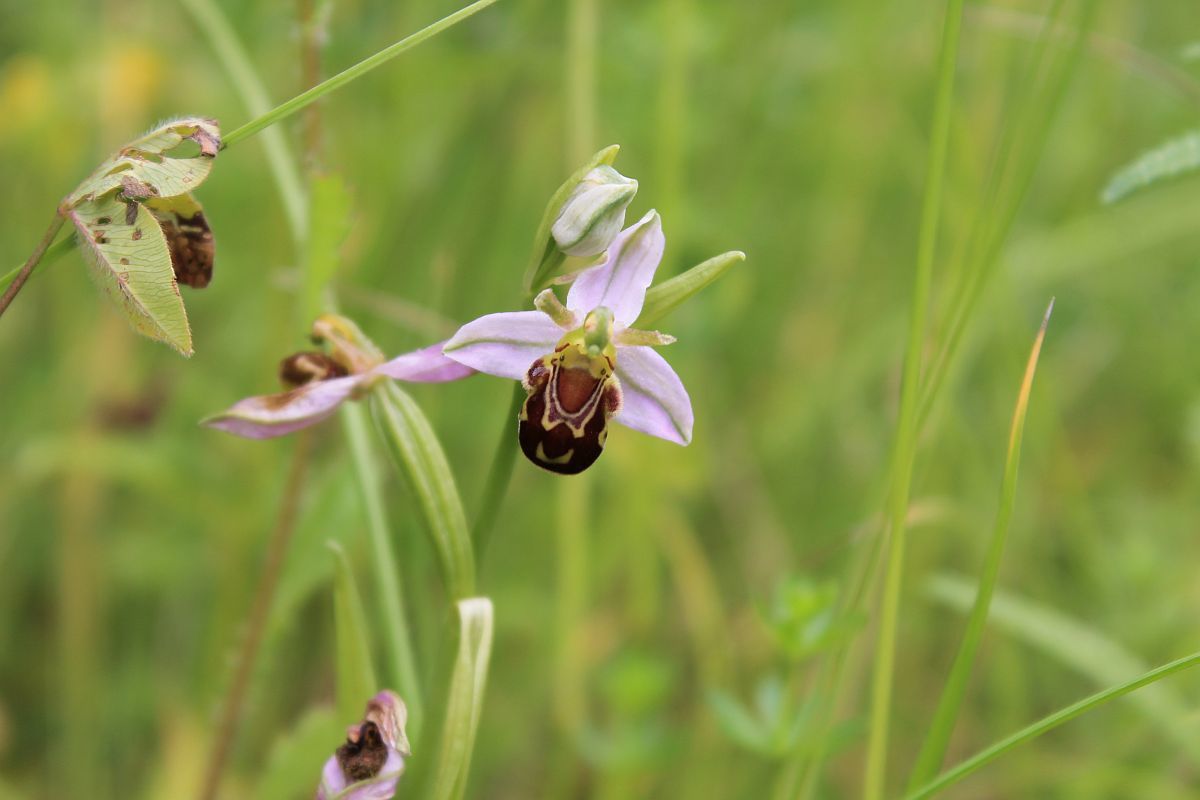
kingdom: Plantae
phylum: Tracheophyta
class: Liliopsida
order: Asparagales
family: Orchidaceae
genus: Ophrys
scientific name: Ophrys apifera
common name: Bee orchid
